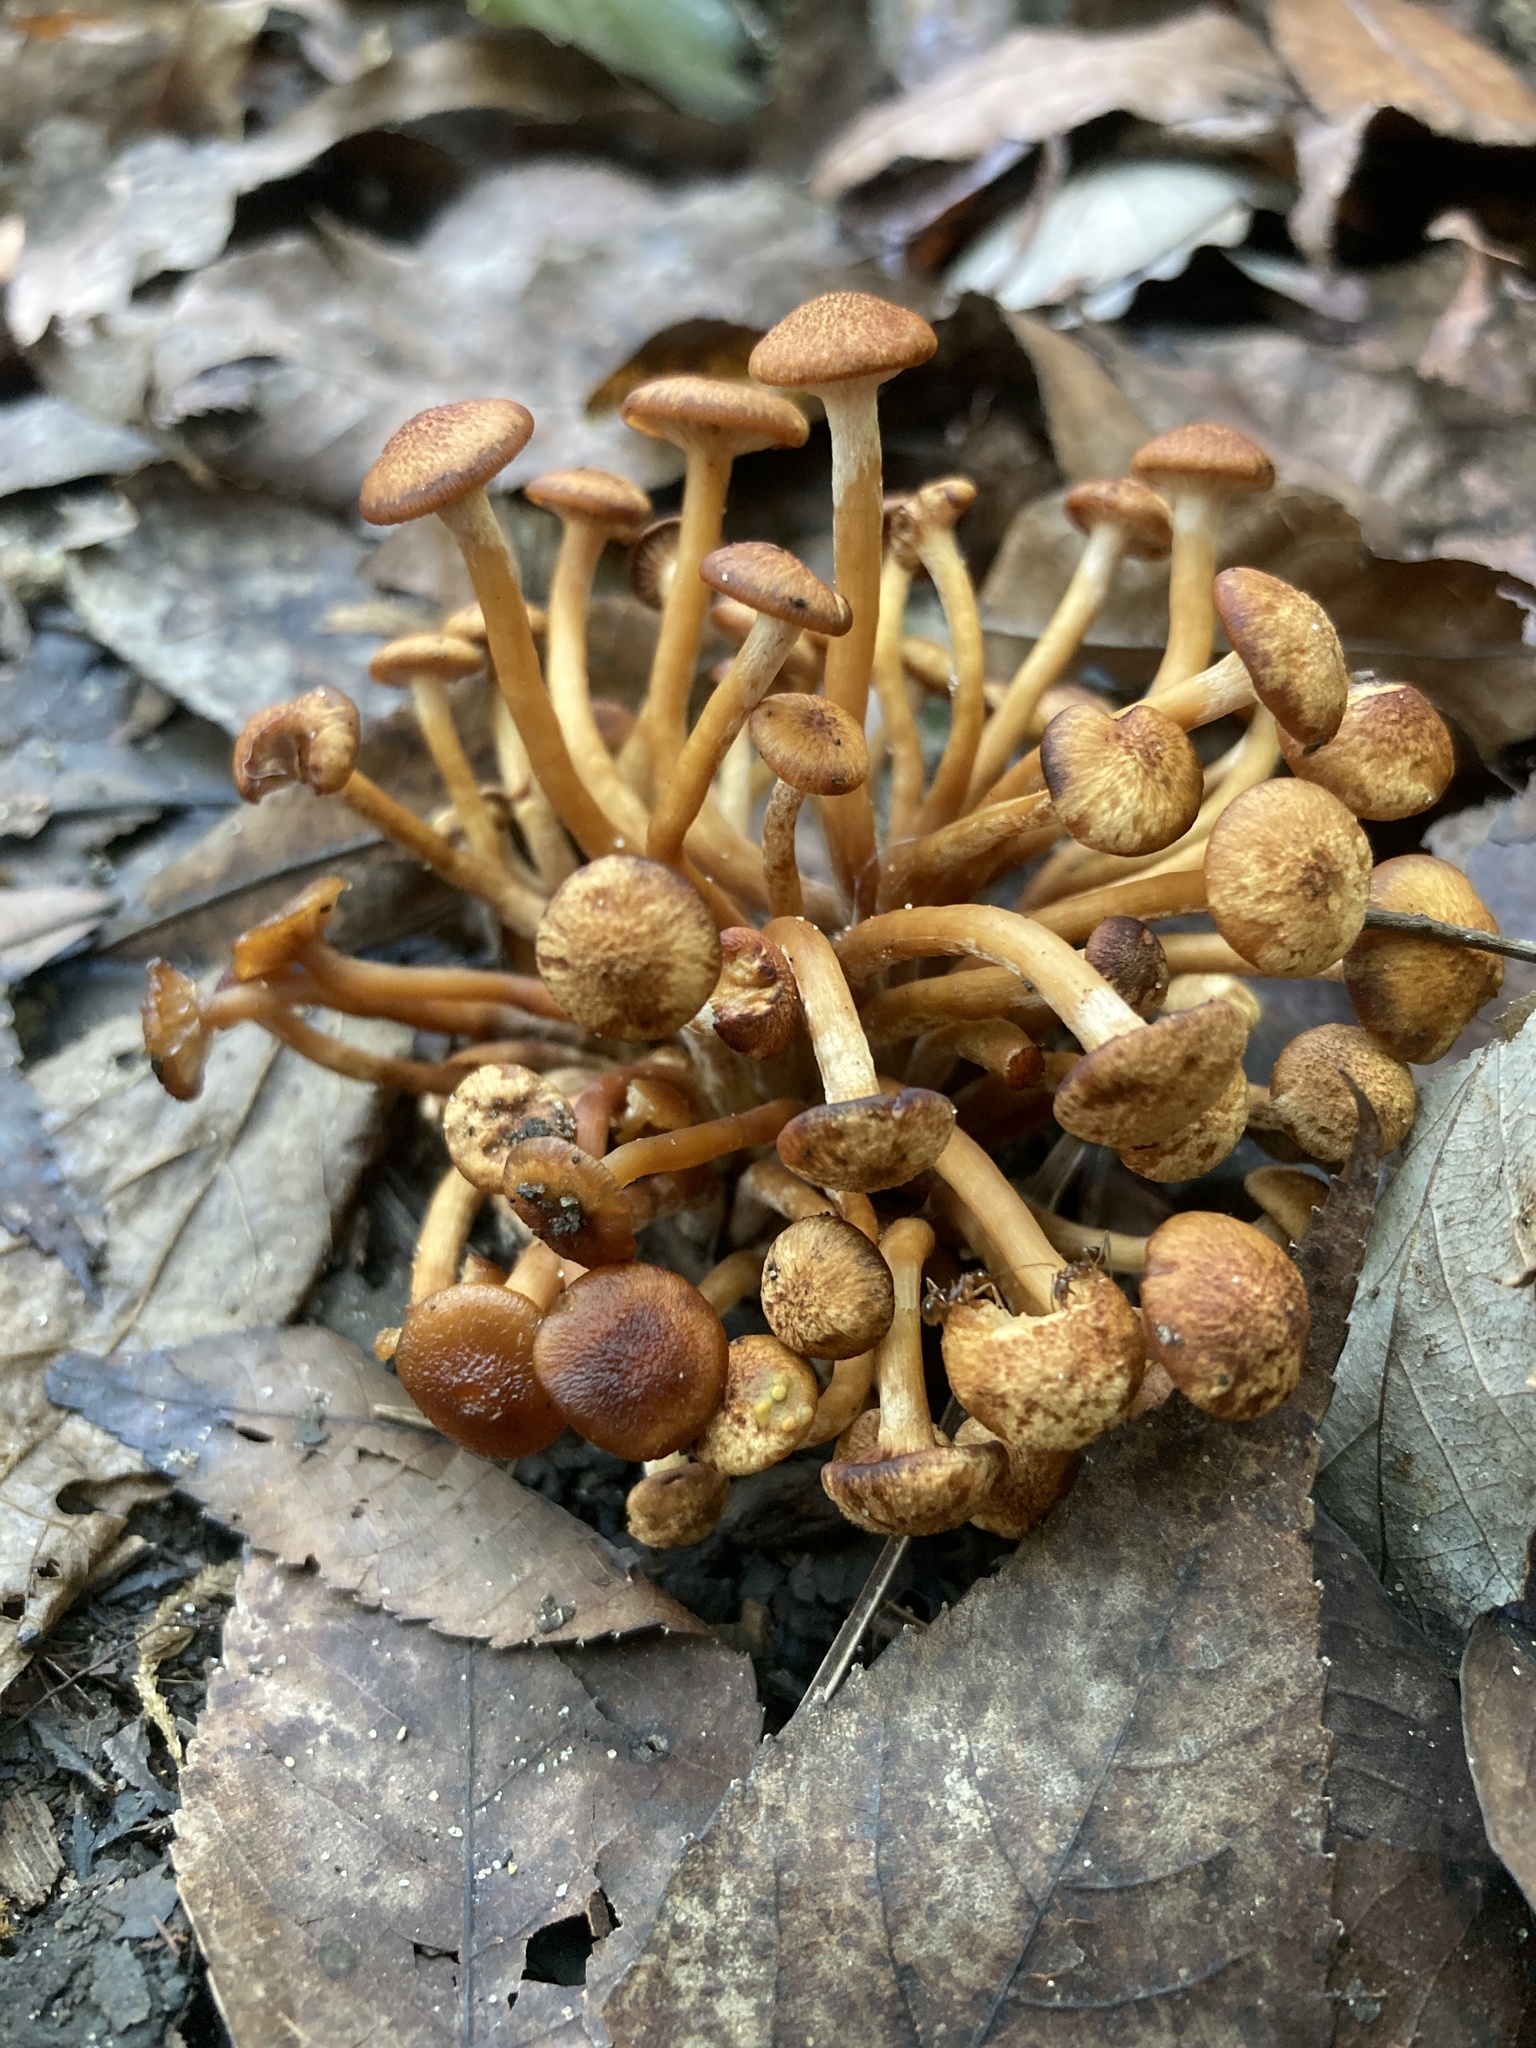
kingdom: Fungi
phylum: Basidiomycota
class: Agaricomycetes
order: Agaricales
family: Physalacriaceae
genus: Desarmillaria
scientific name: Desarmillaria caespitosa
